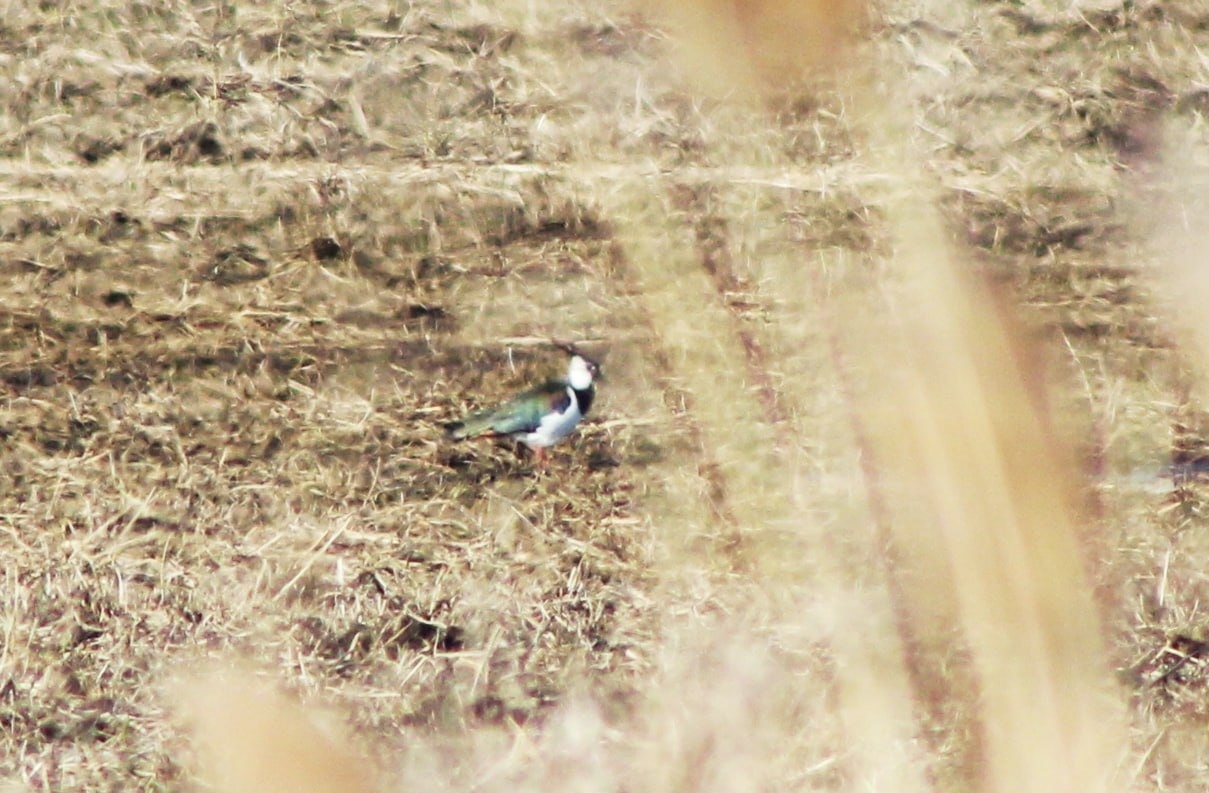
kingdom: Animalia
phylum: Chordata
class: Aves
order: Charadriiformes
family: Charadriidae
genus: Vanellus
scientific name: Vanellus vanellus
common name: Northern lapwing
